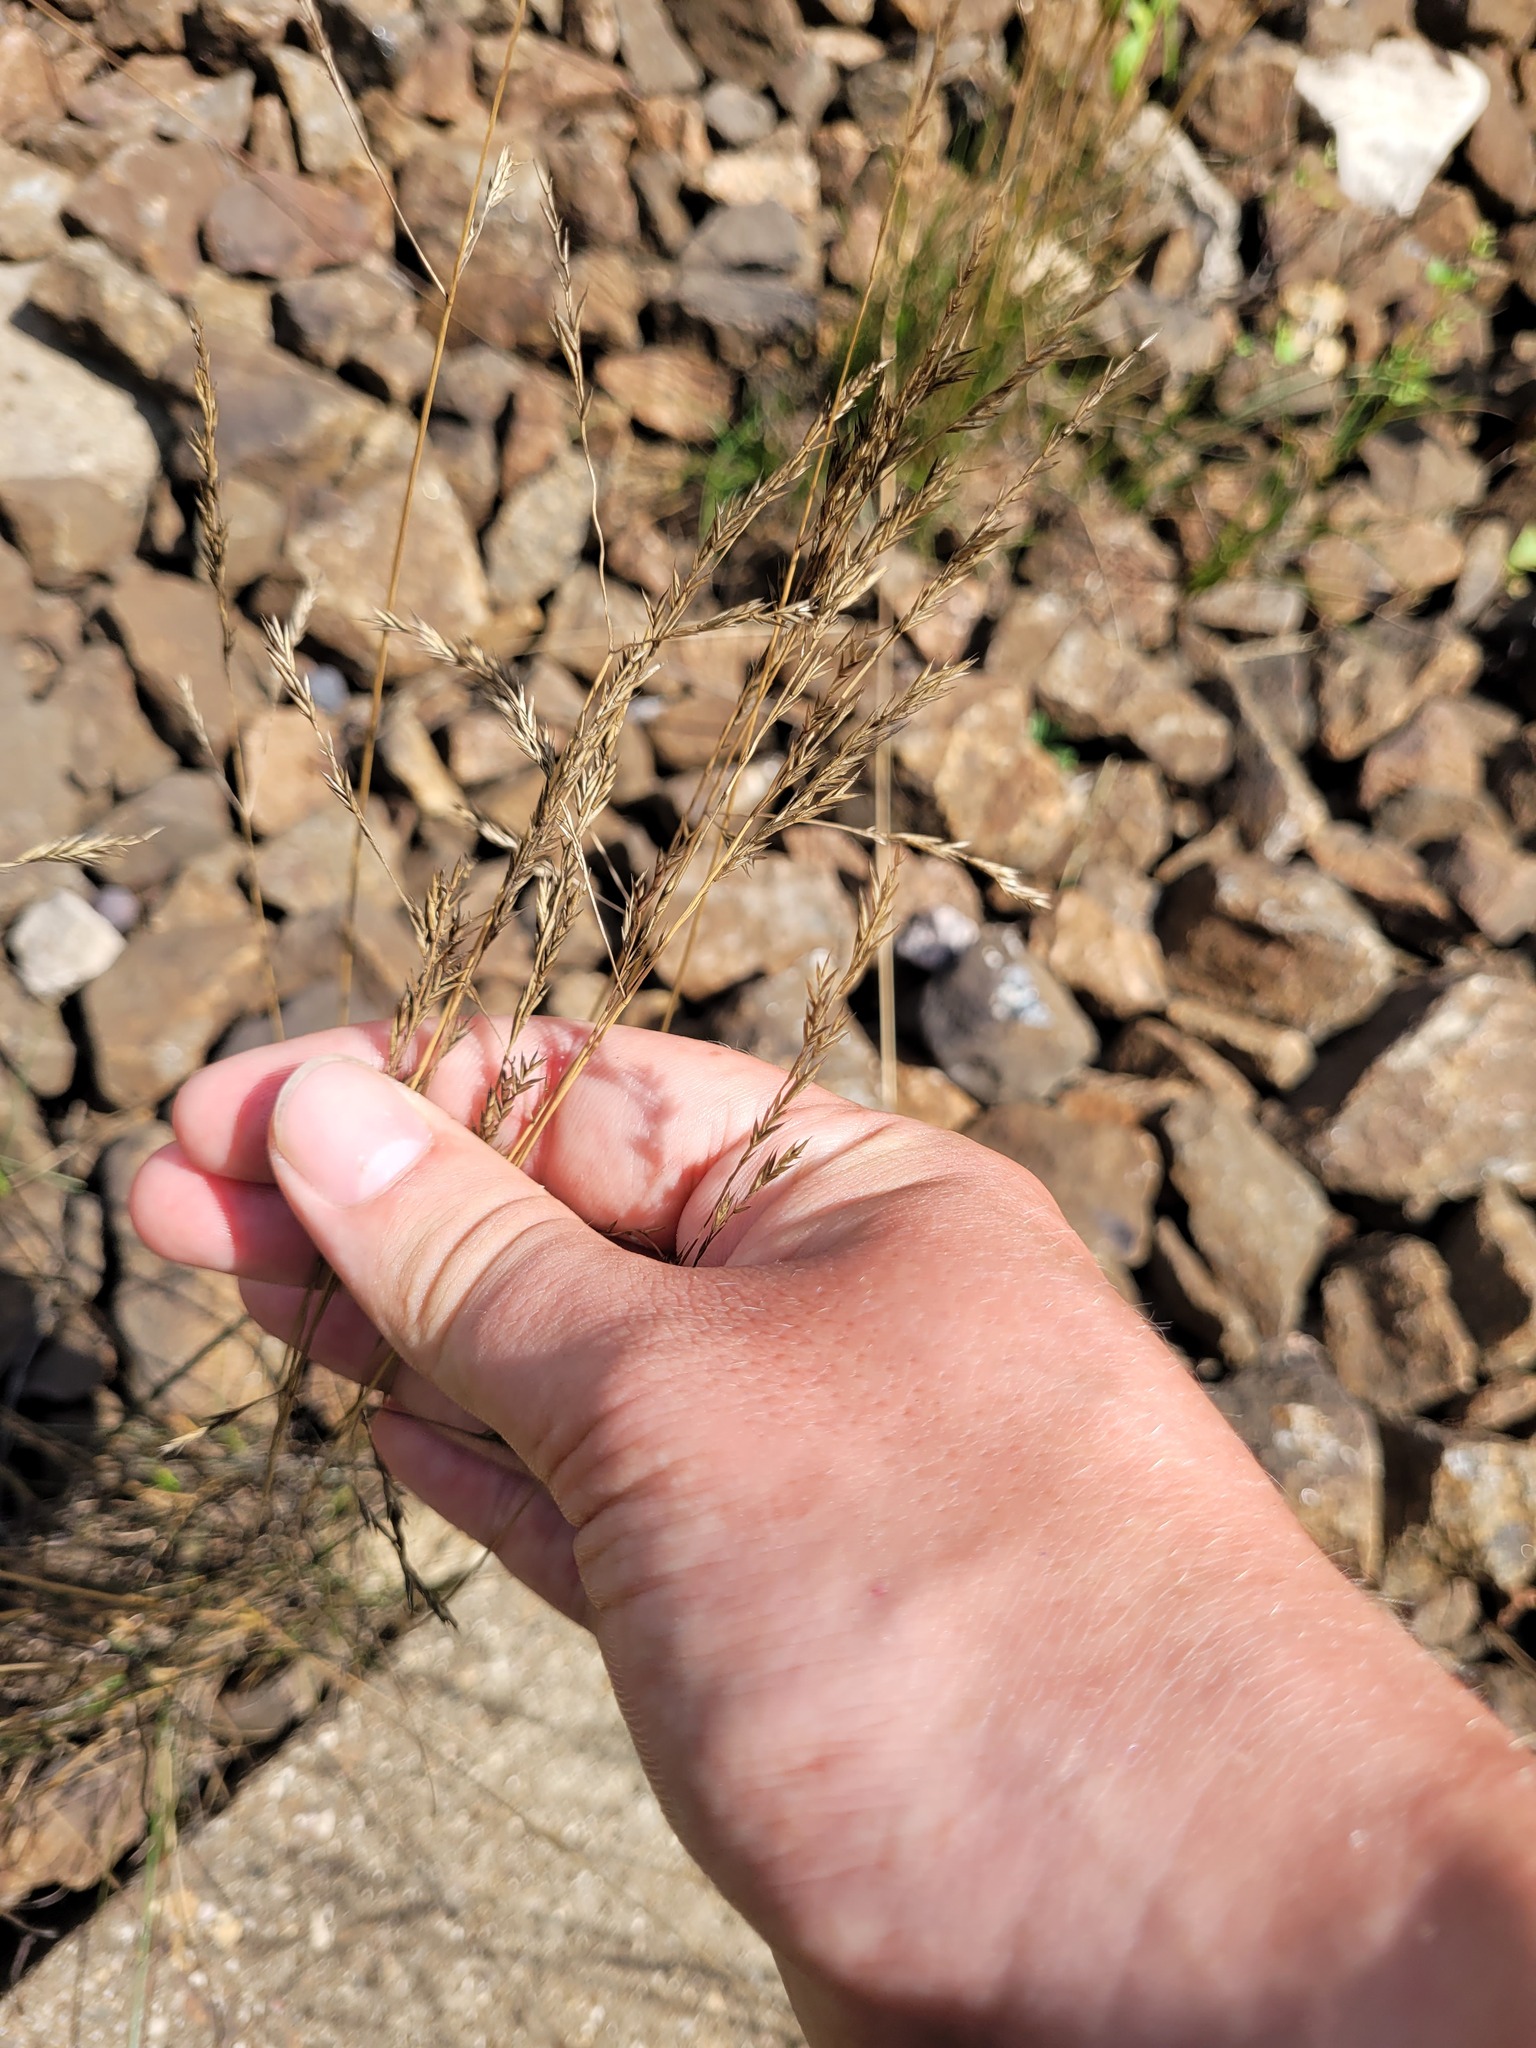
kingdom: Plantae
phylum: Tracheophyta
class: Liliopsida
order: Poales
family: Poaceae
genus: Festuca
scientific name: Festuca rubra
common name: Red fescue
